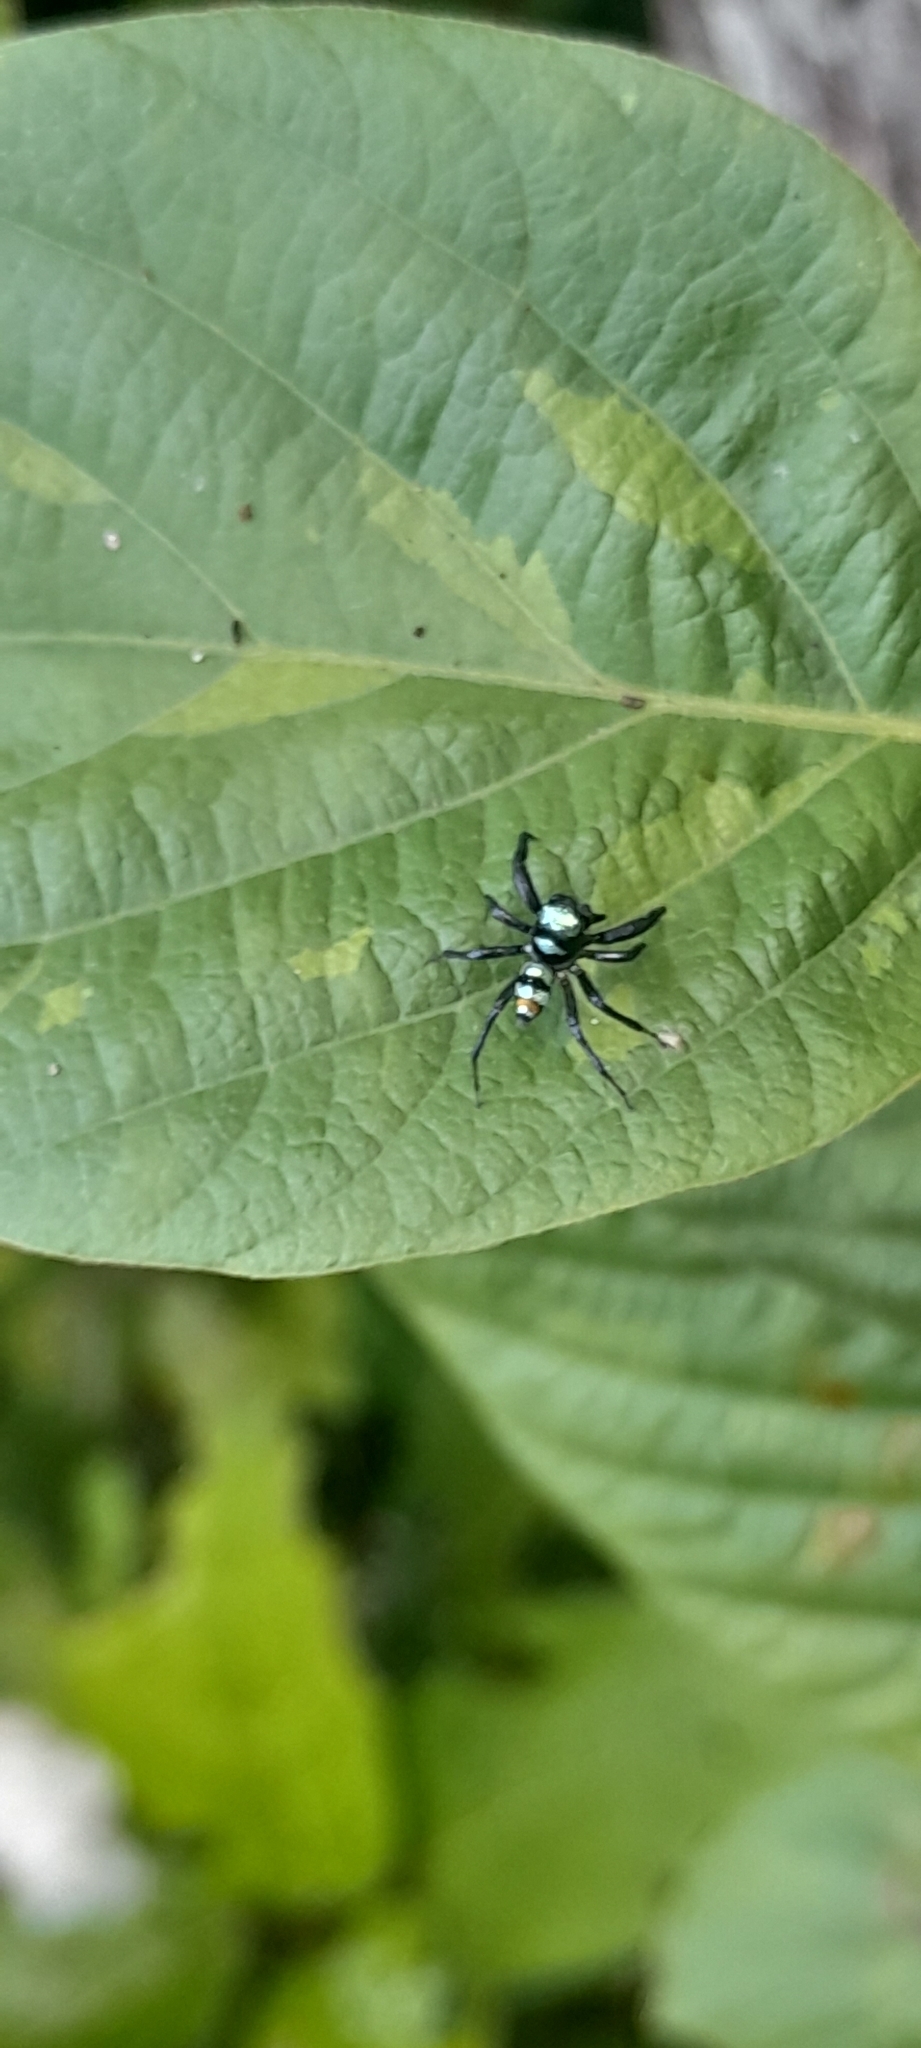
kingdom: Animalia
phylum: Arthropoda
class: Arachnida
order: Araneae
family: Salticidae
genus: Phintella
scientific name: Phintella vittata
